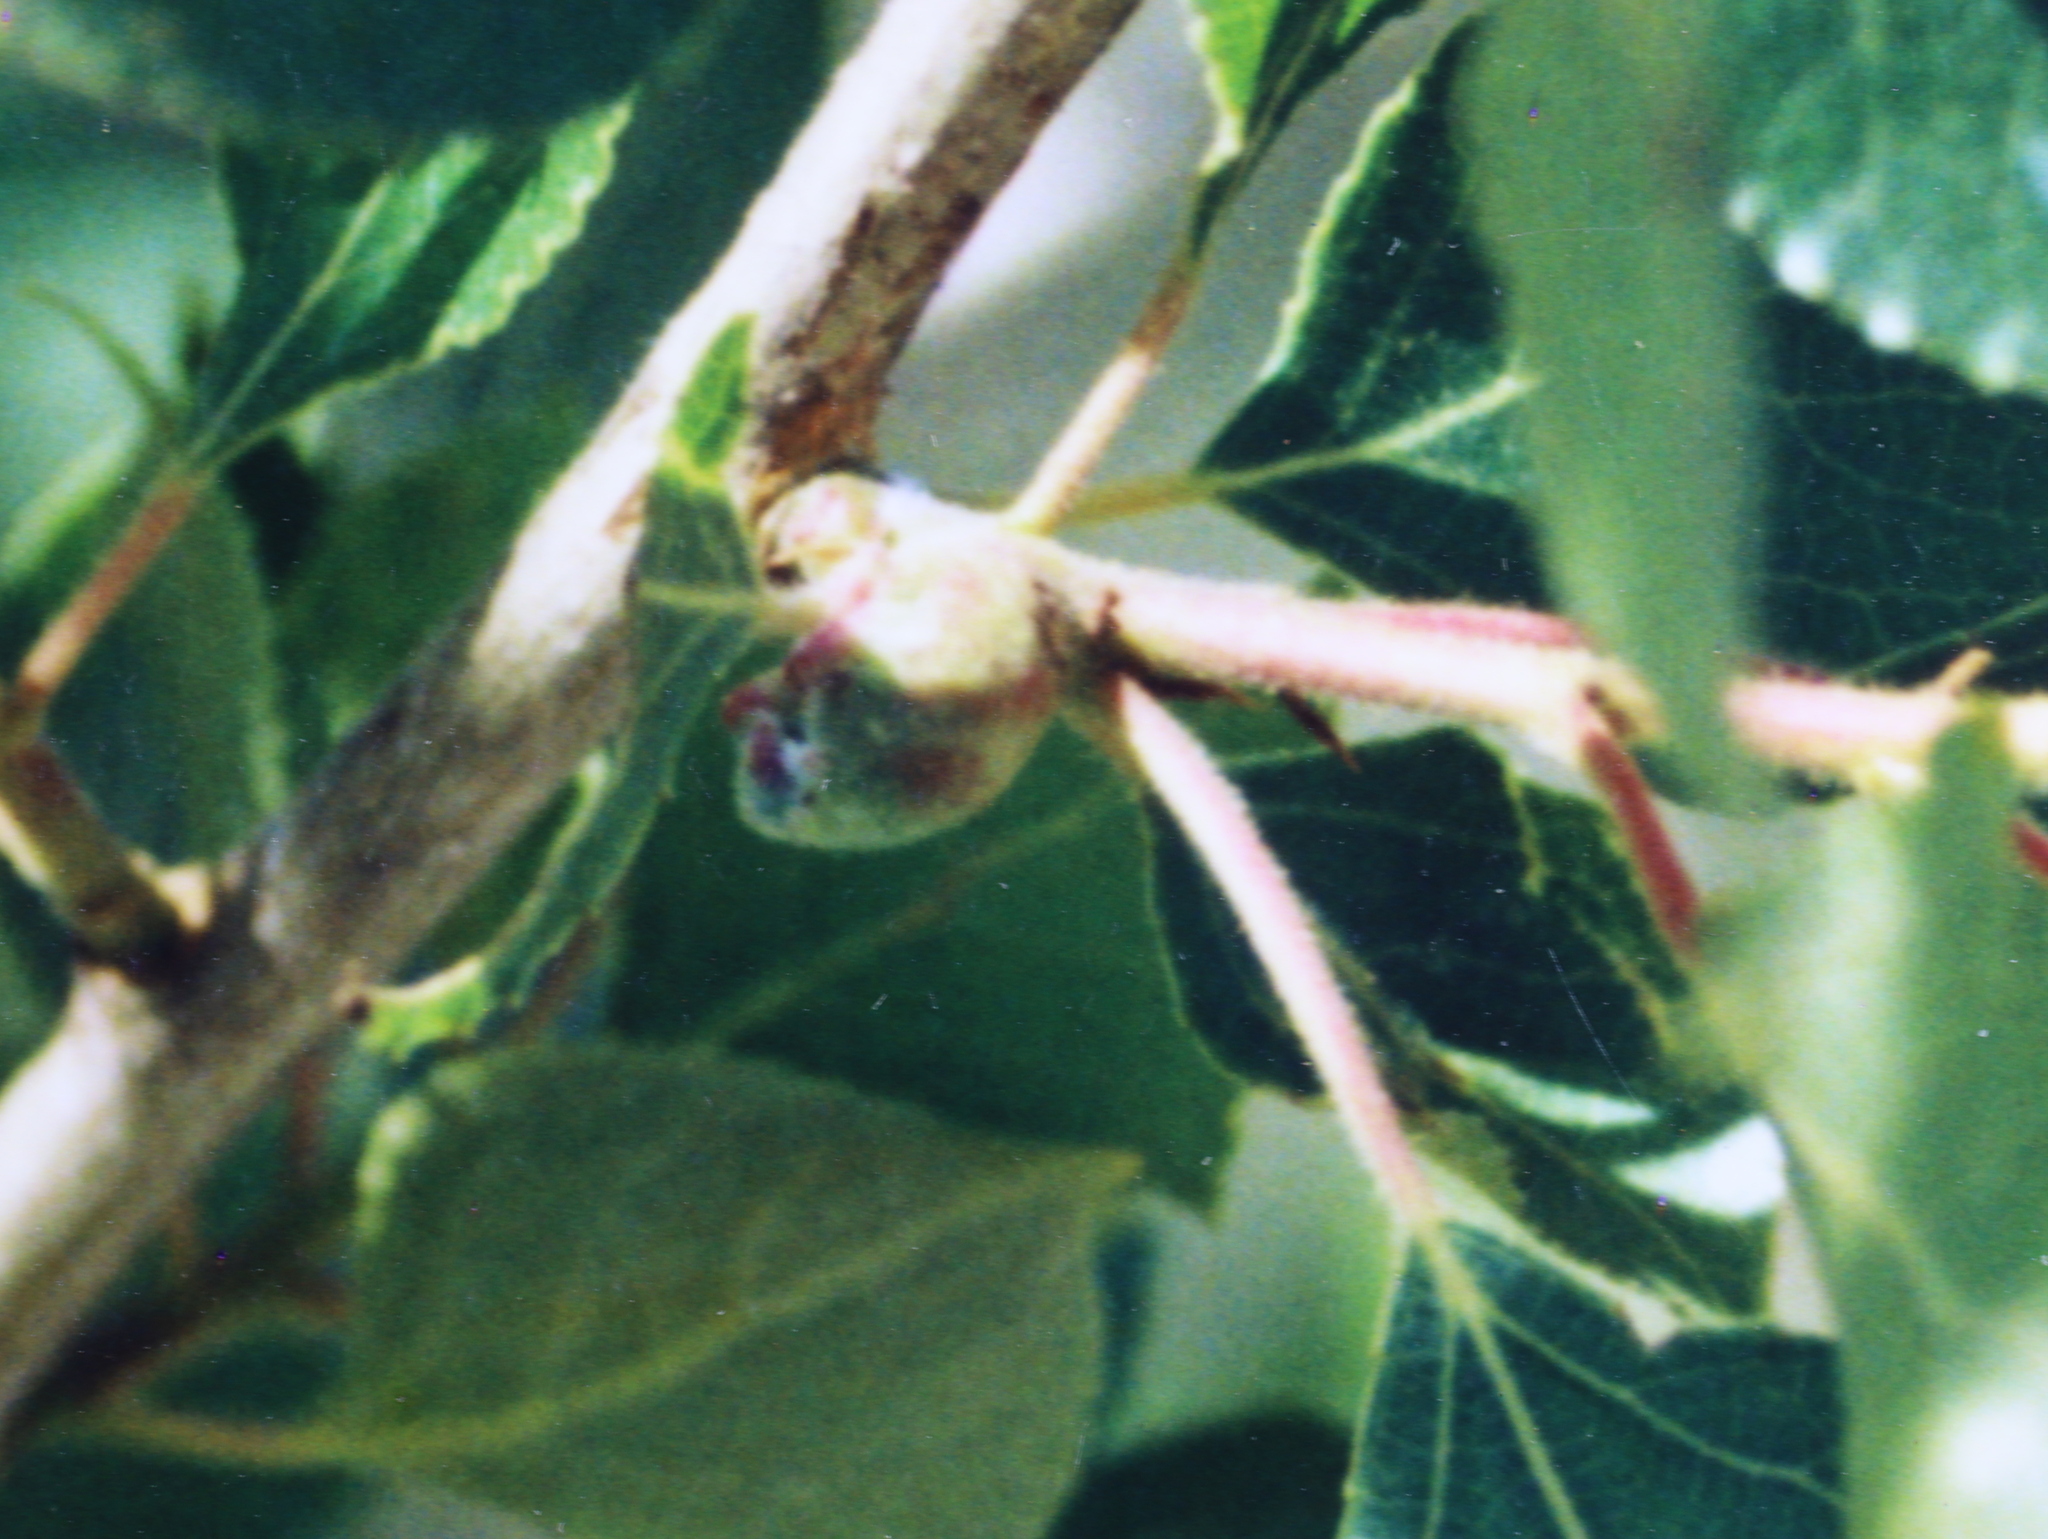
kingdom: Animalia
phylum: Arthropoda
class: Insecta
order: Hemiptera
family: Aphididae
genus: Pemphigus
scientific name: Pemphigus immunis
